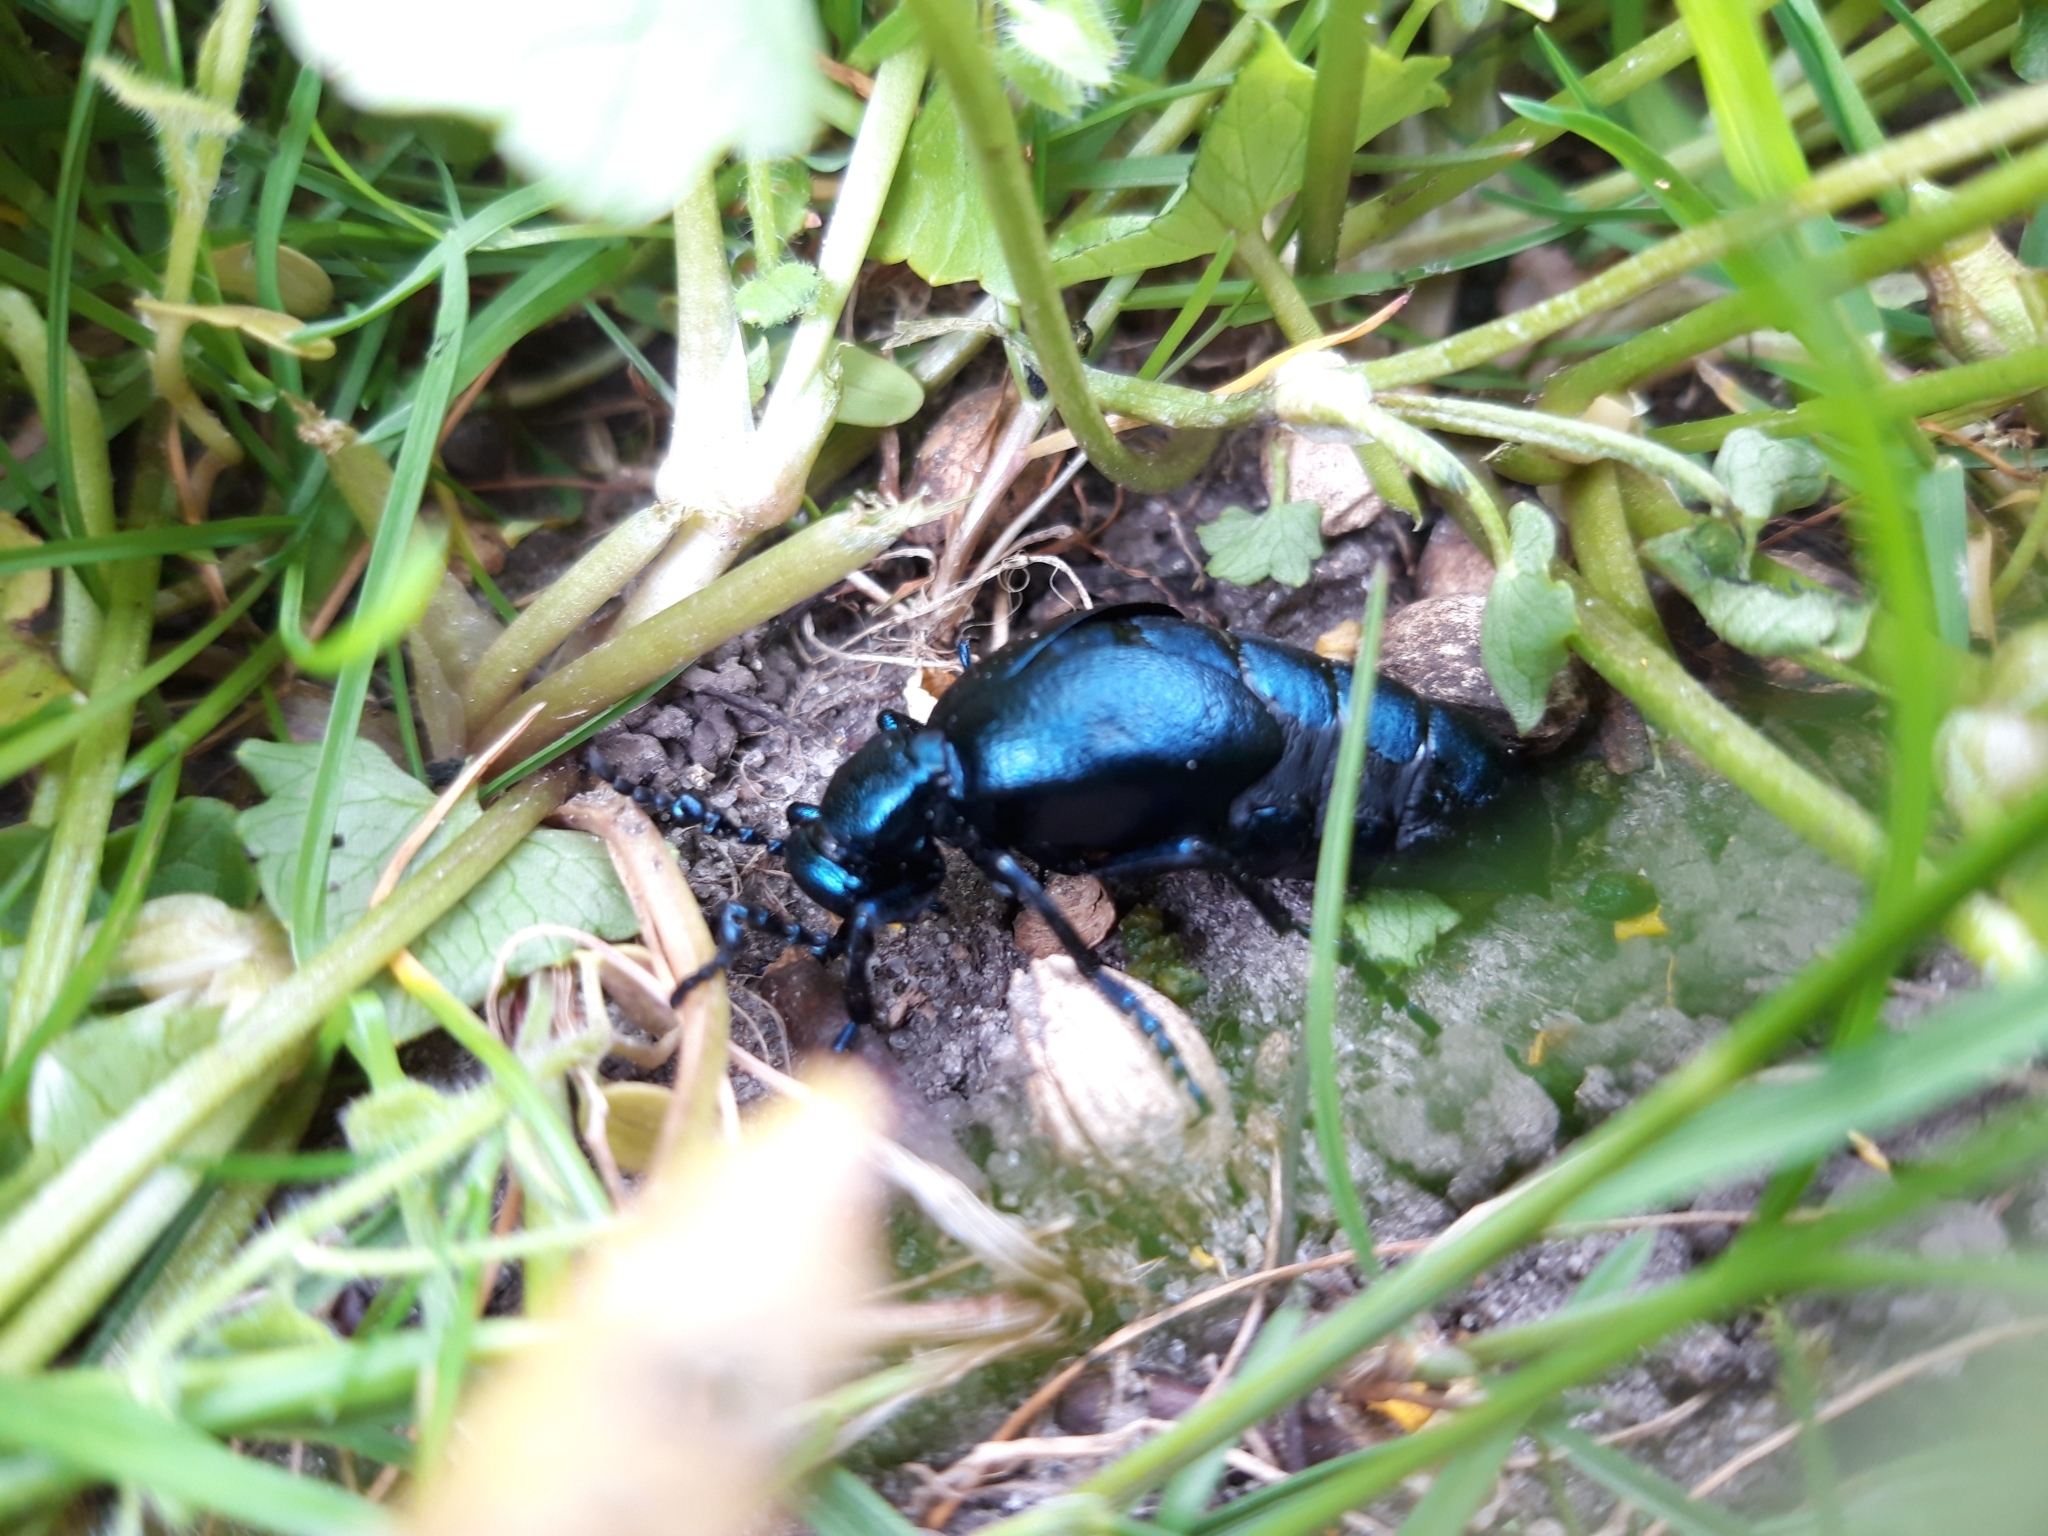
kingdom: Animalia
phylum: Arthropoda
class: Insecta
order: Coleoptera
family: Meloidae
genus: Meloe
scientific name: Meloe violaceus
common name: Violet oil-beetle
